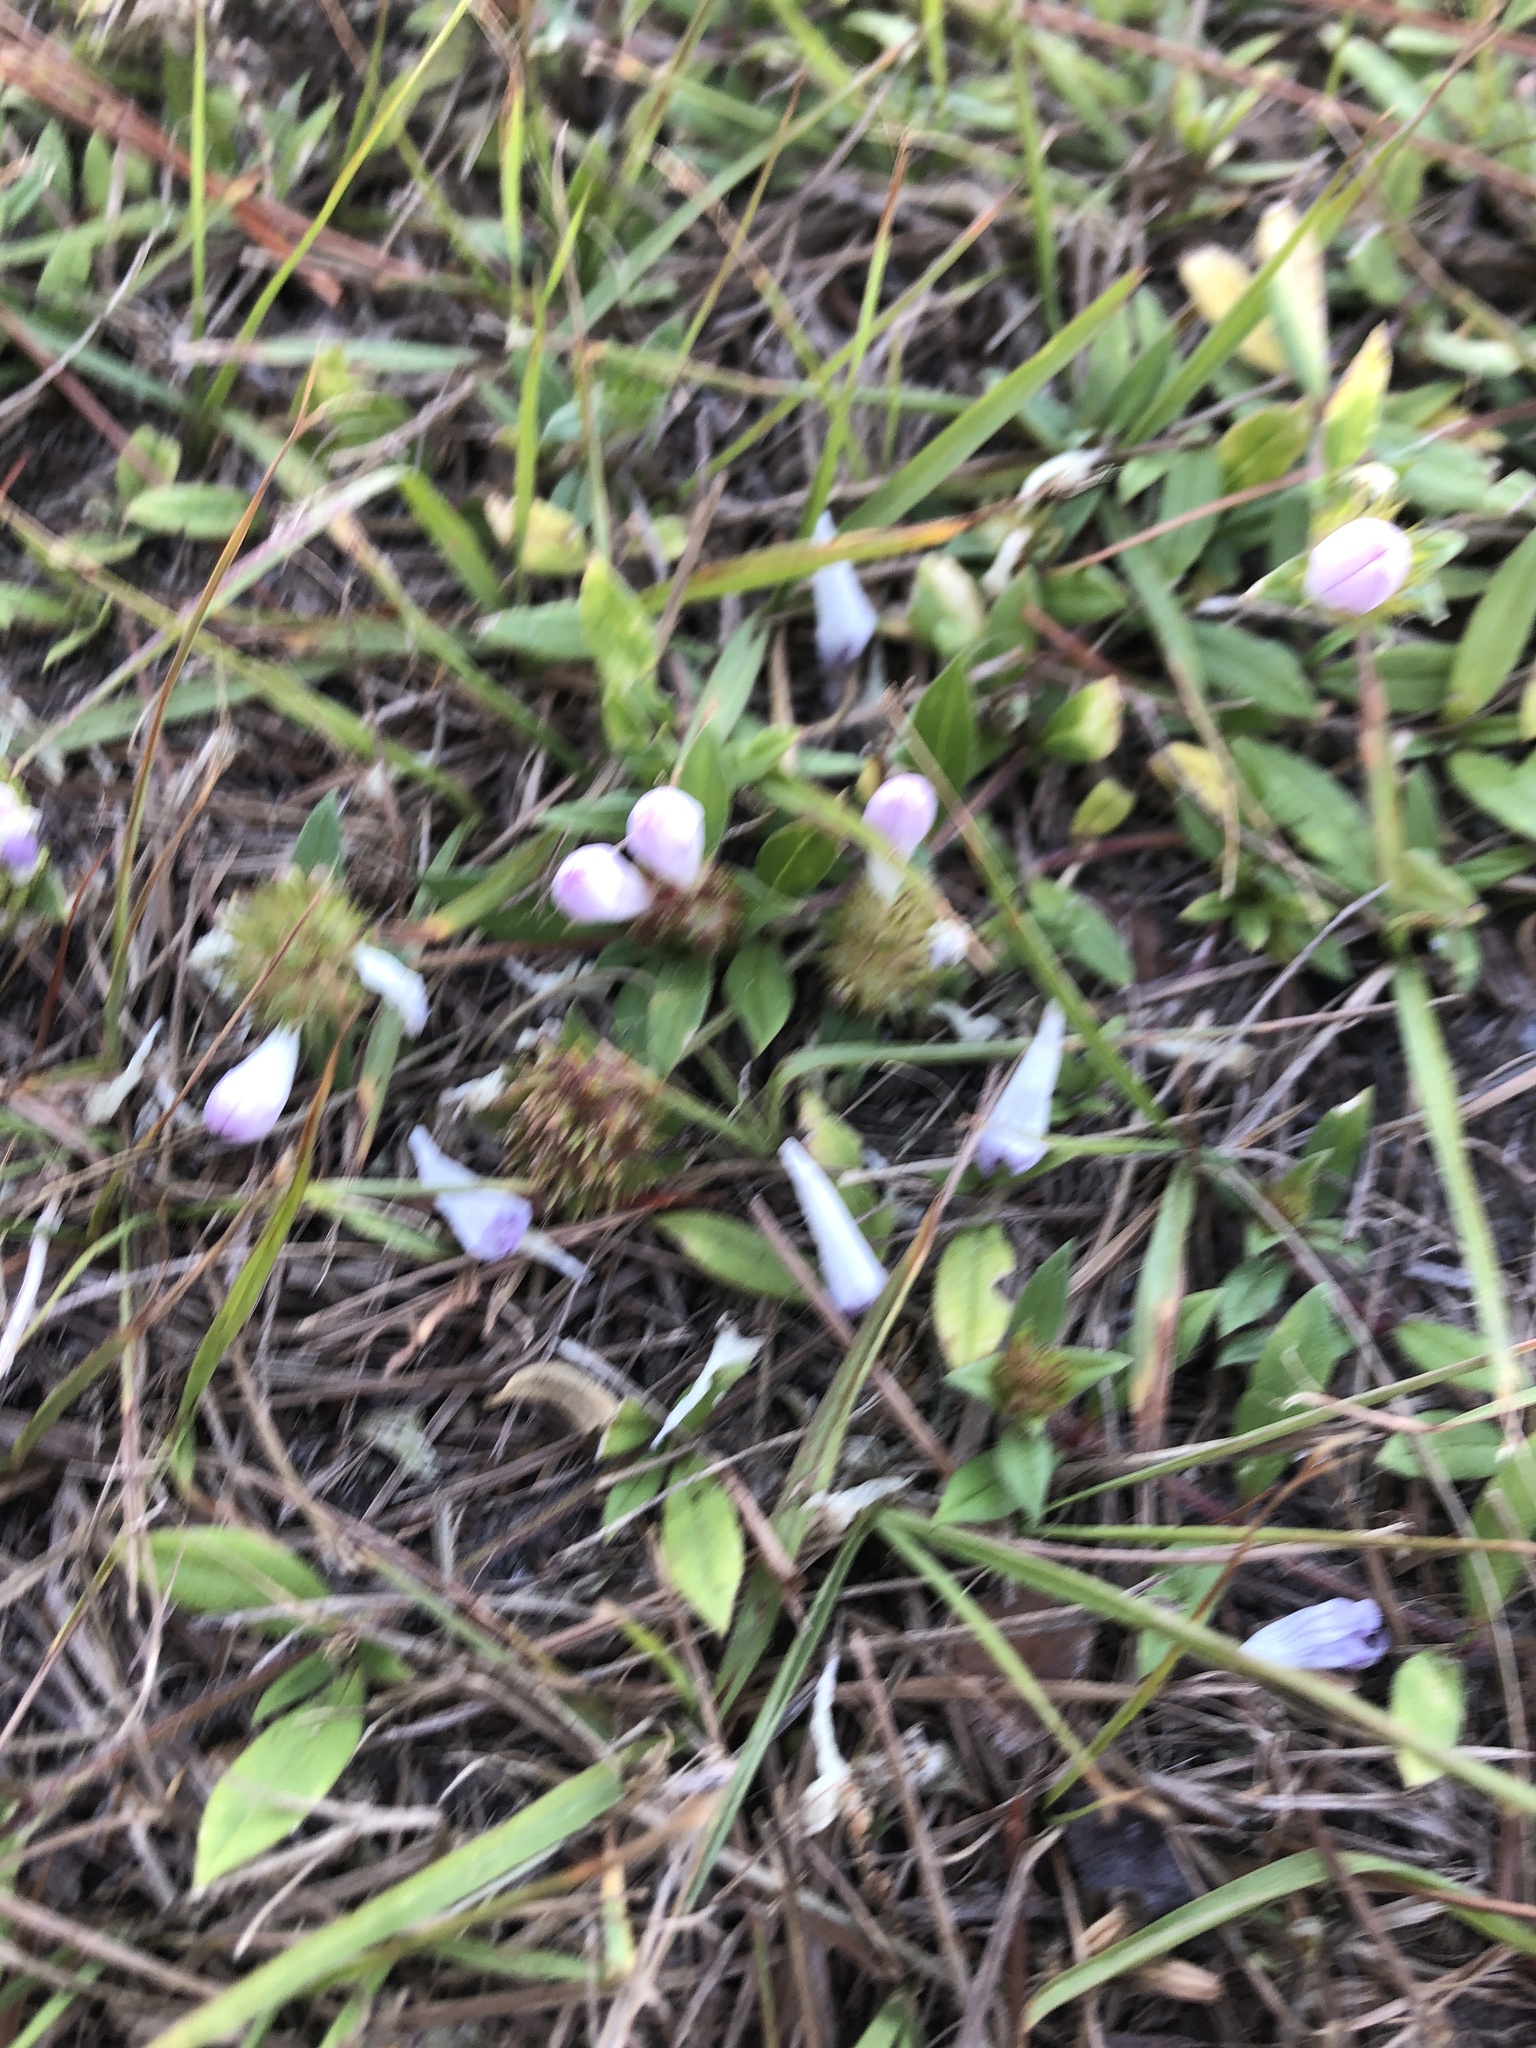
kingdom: Plantae
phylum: Tracheophyta
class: Magnoliopsida
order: Gentianales
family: Rubiaceae
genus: Richardia
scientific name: Richardia grandiflora
